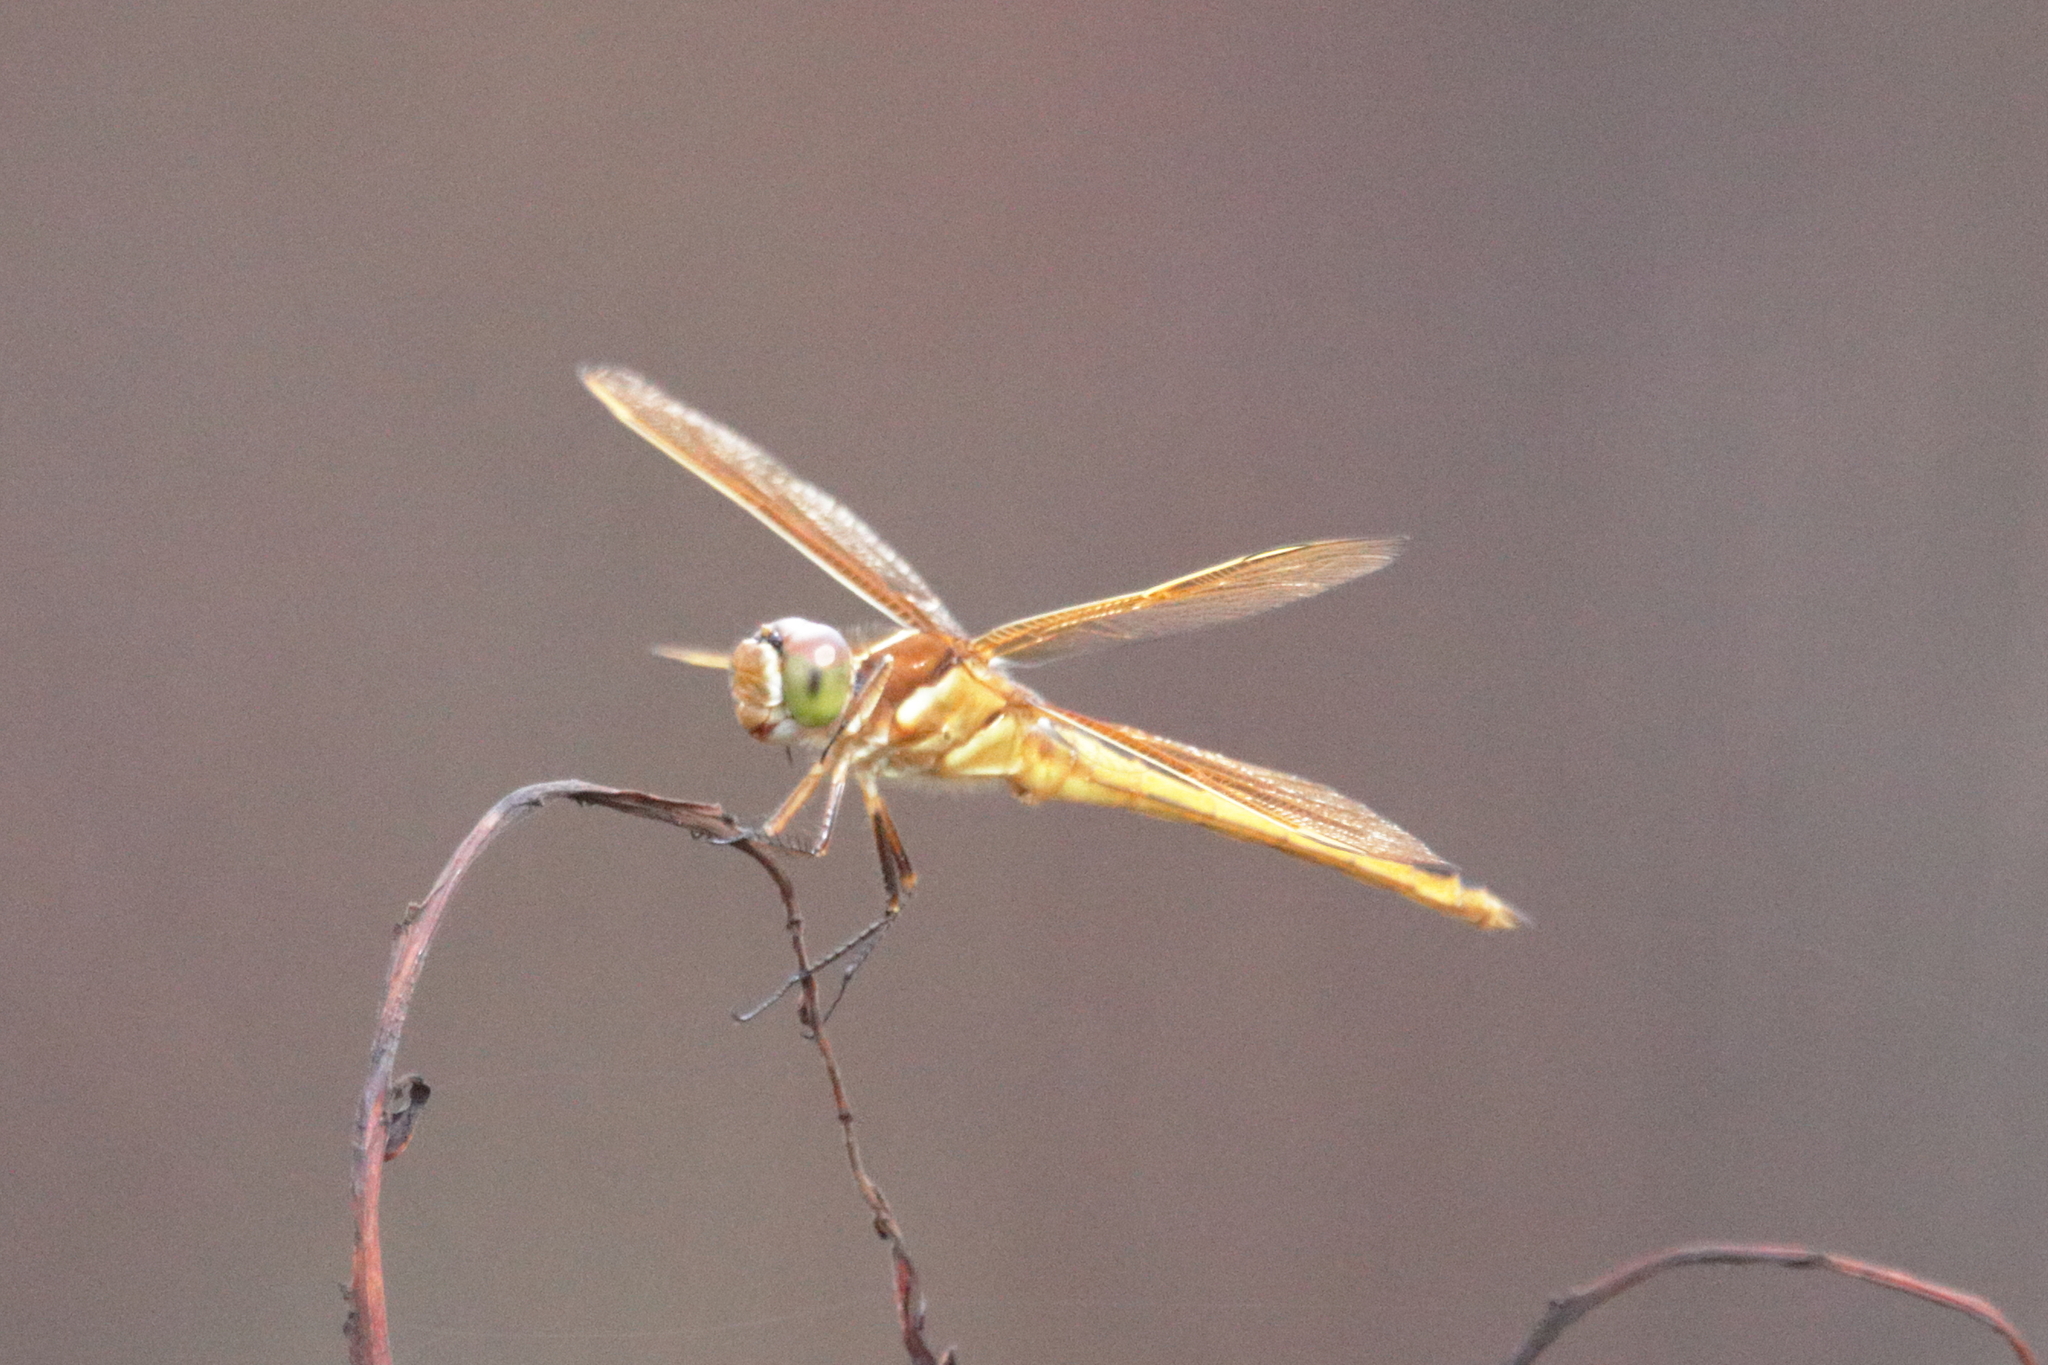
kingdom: Animalia
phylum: Arthropoda
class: Insecta
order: Odonata
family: Libellulidae
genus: Libellula
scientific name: Libellula auripennis
